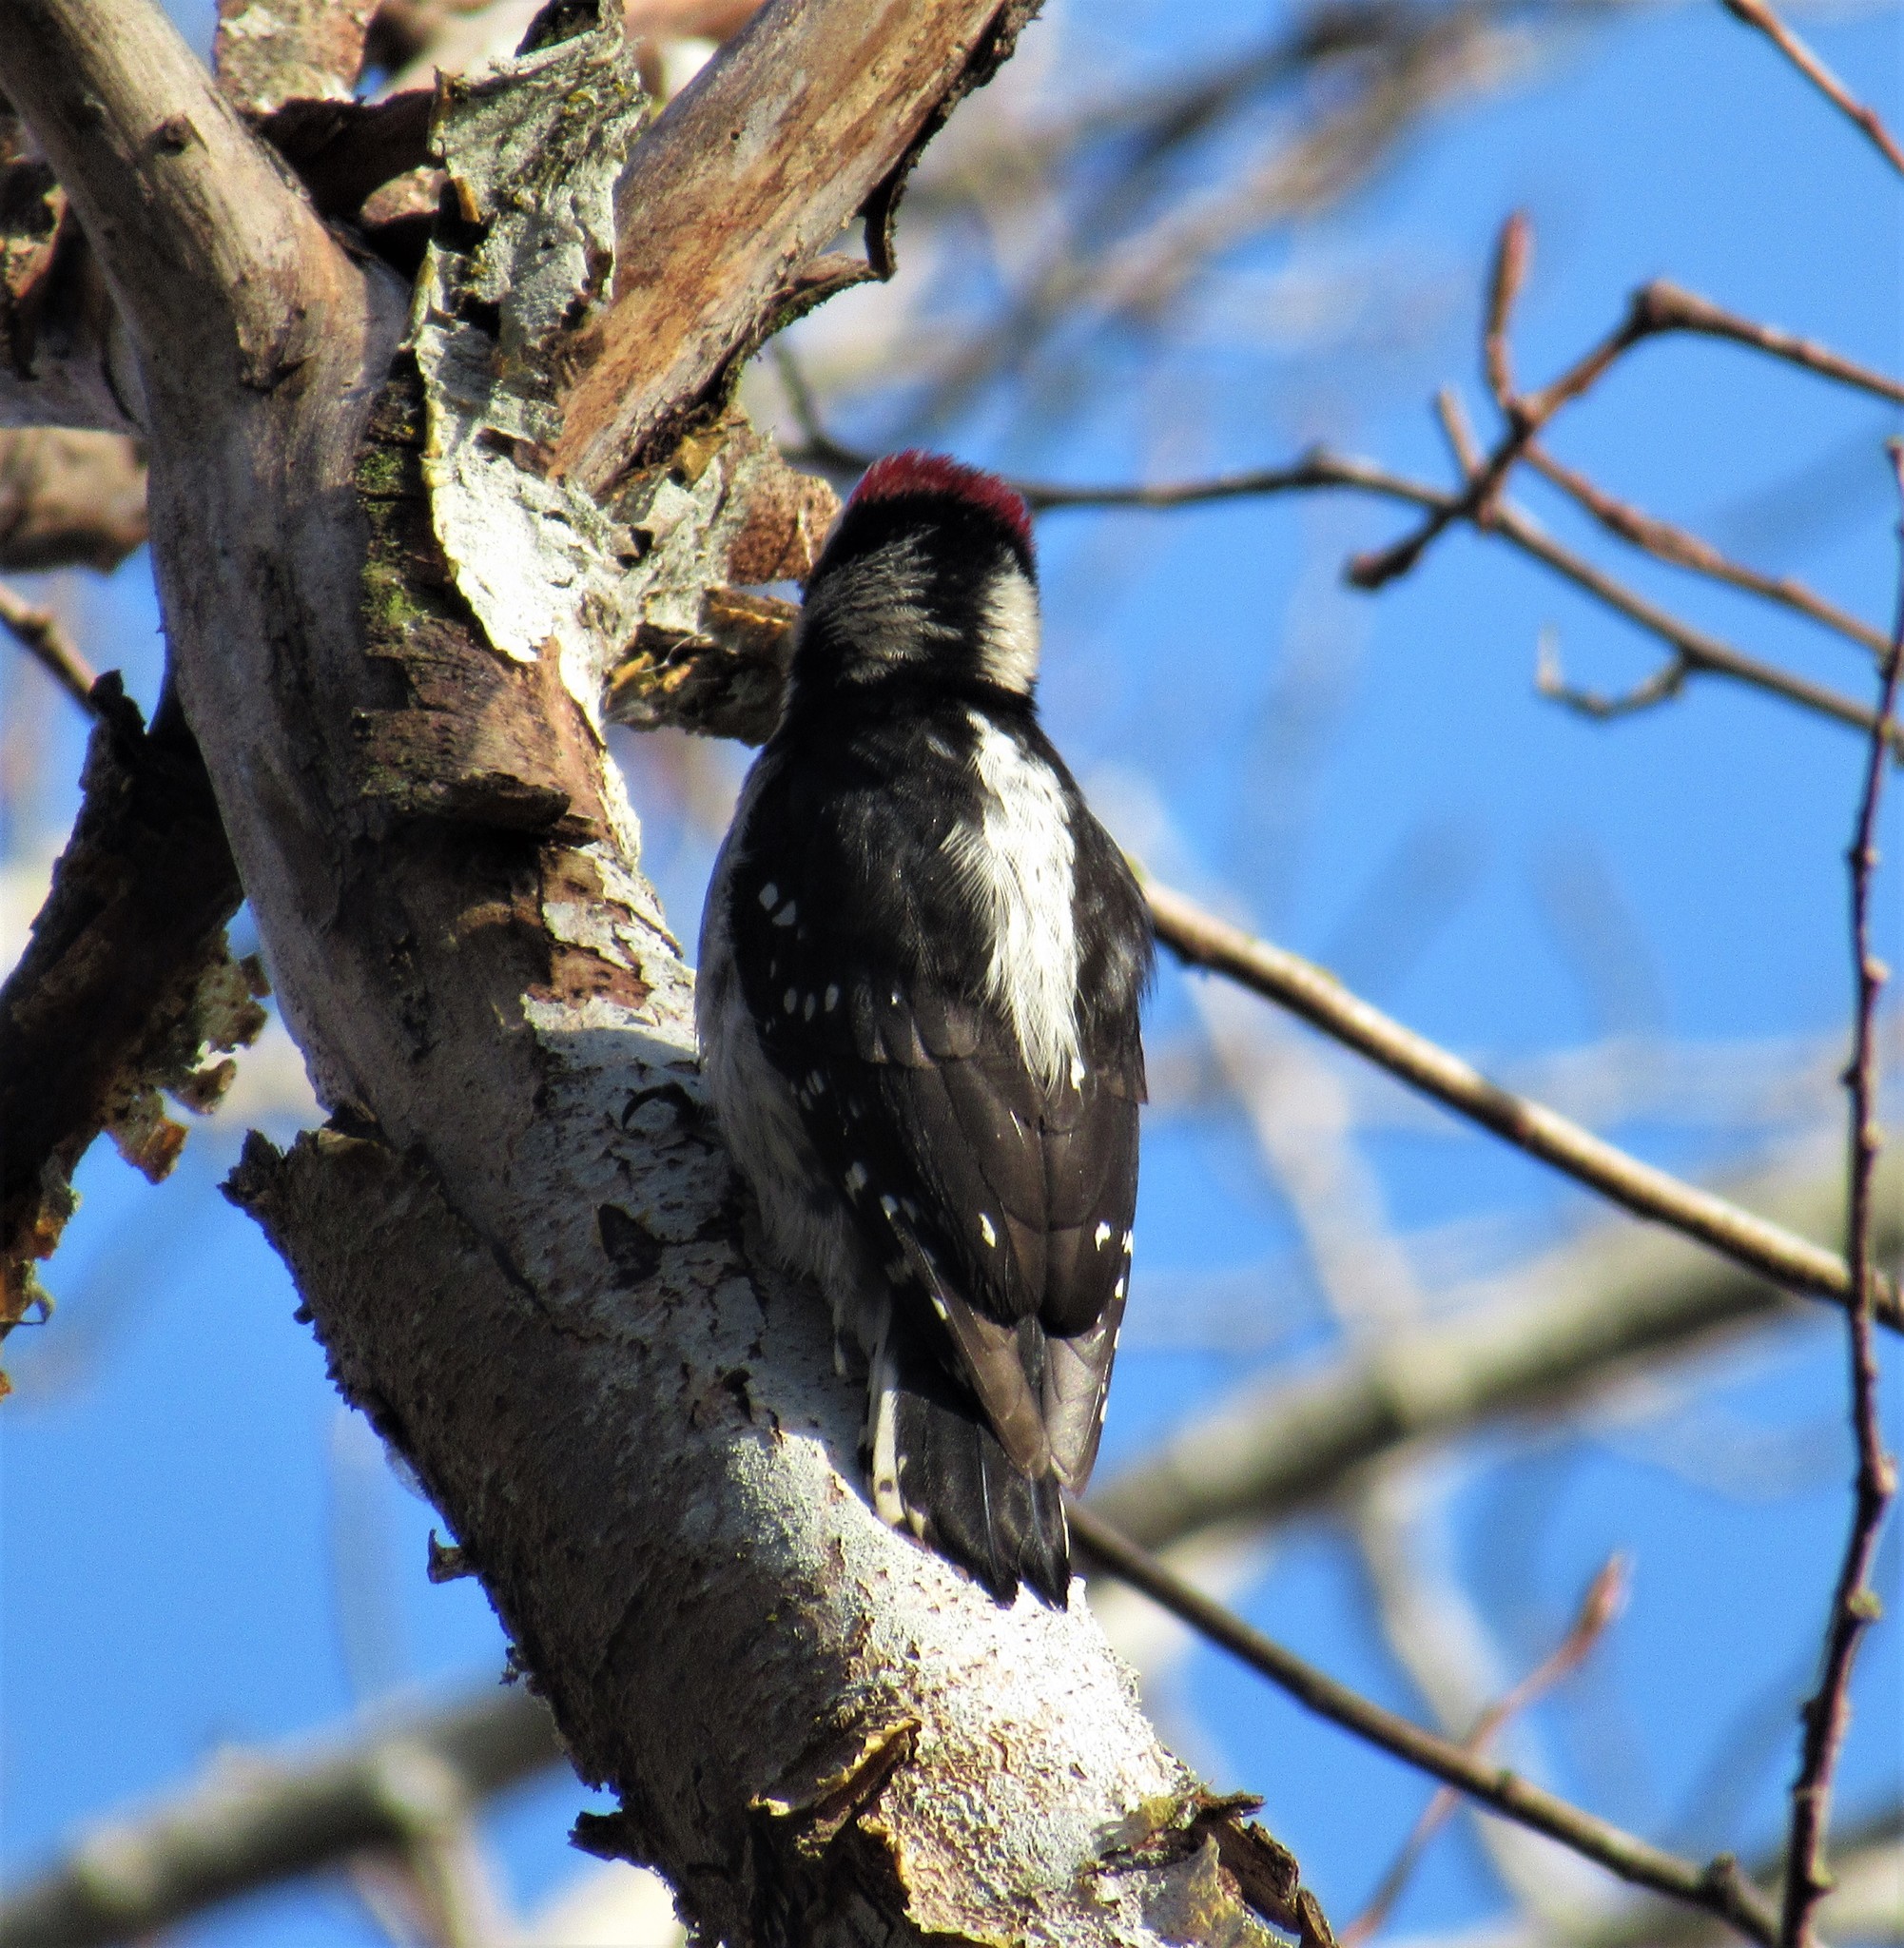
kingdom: Animalia
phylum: Chordata
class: Aves
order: Piciformes
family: Picidae
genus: Dryobates
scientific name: Dryobates pubescens
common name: Downy woodpecker
